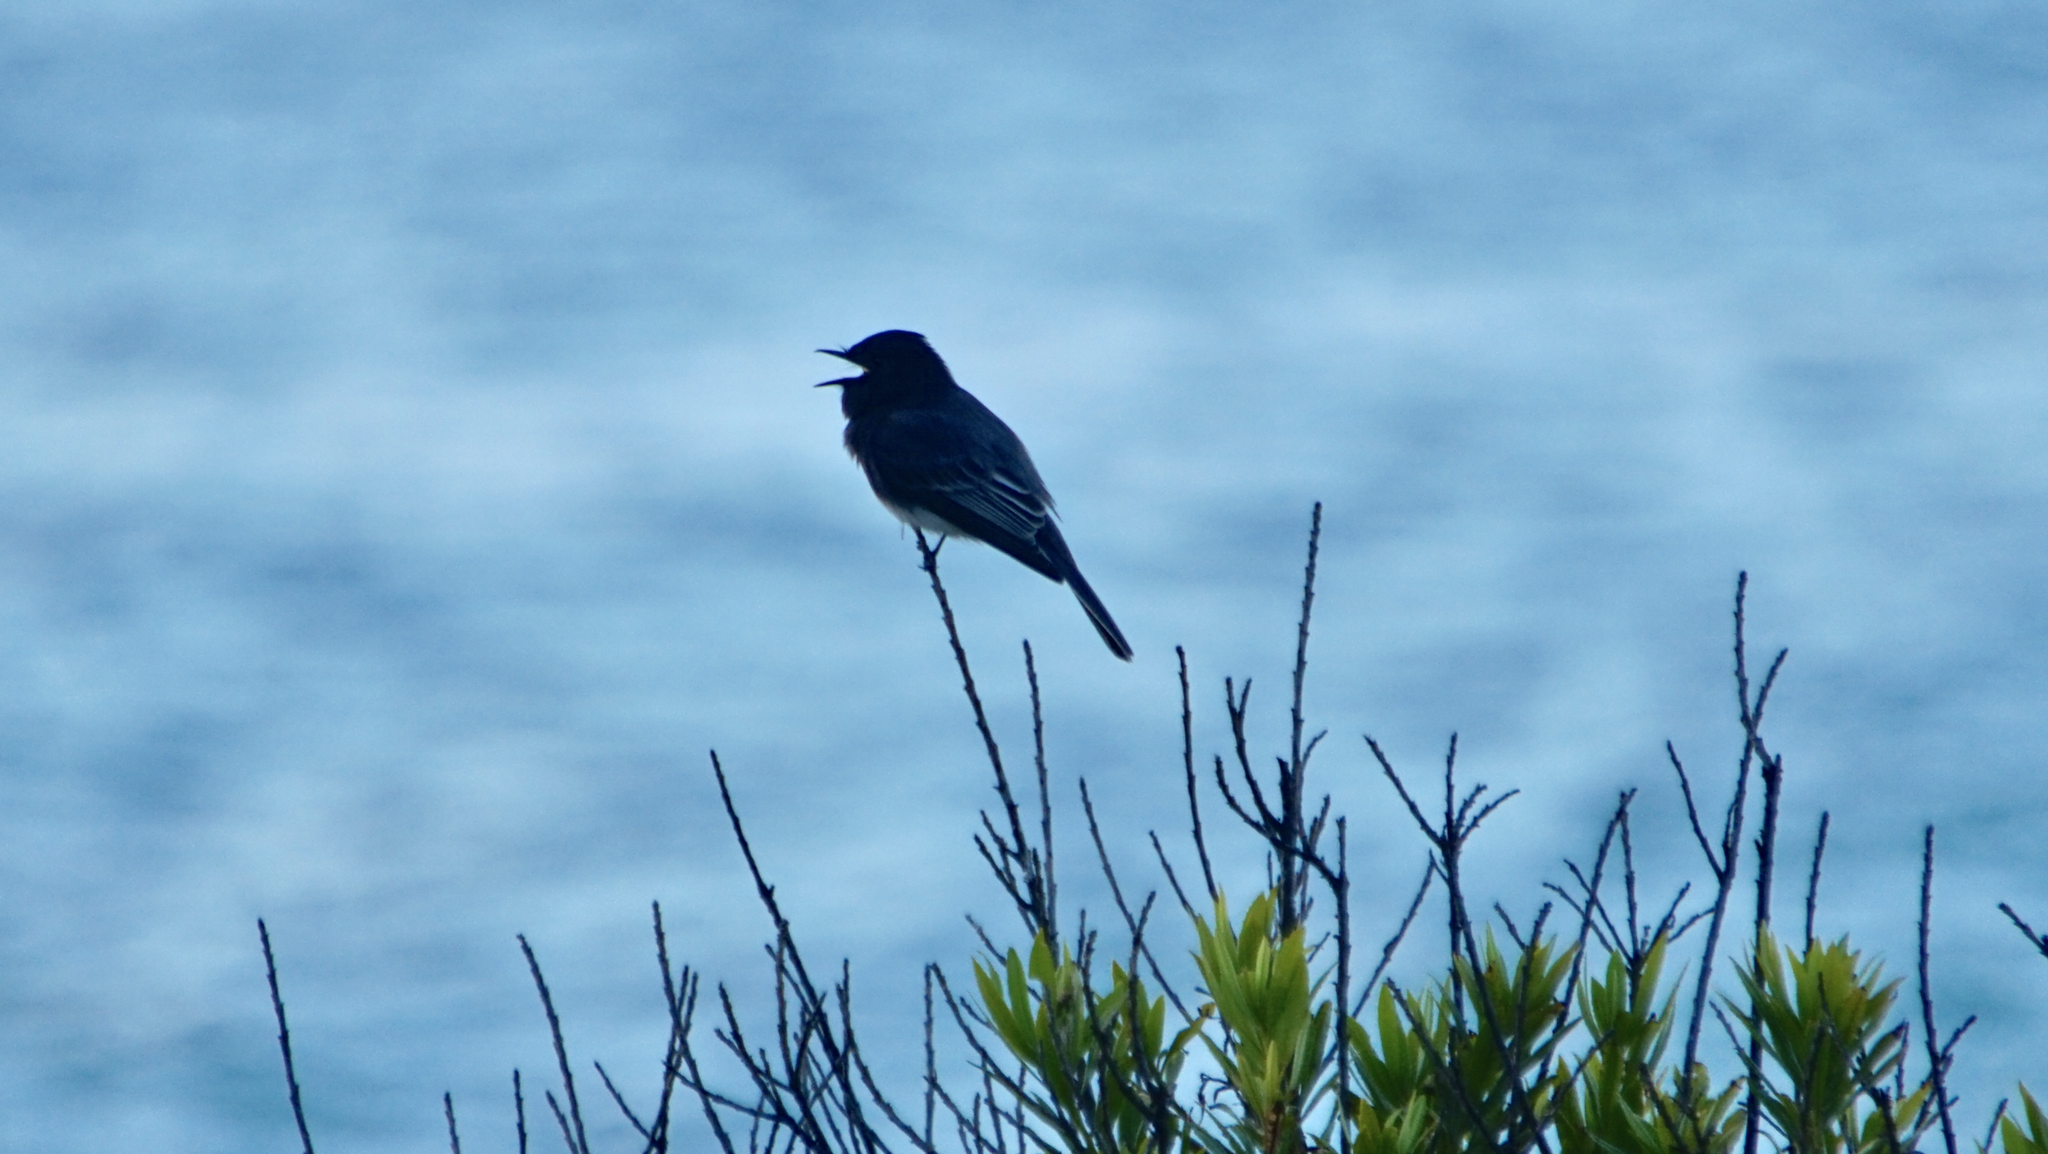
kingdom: Animalia
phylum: Chordata
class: Aves
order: Passeriformes
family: Tyrannidae
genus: Sayornis
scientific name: Sayornis nigricans
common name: Black phoebe
